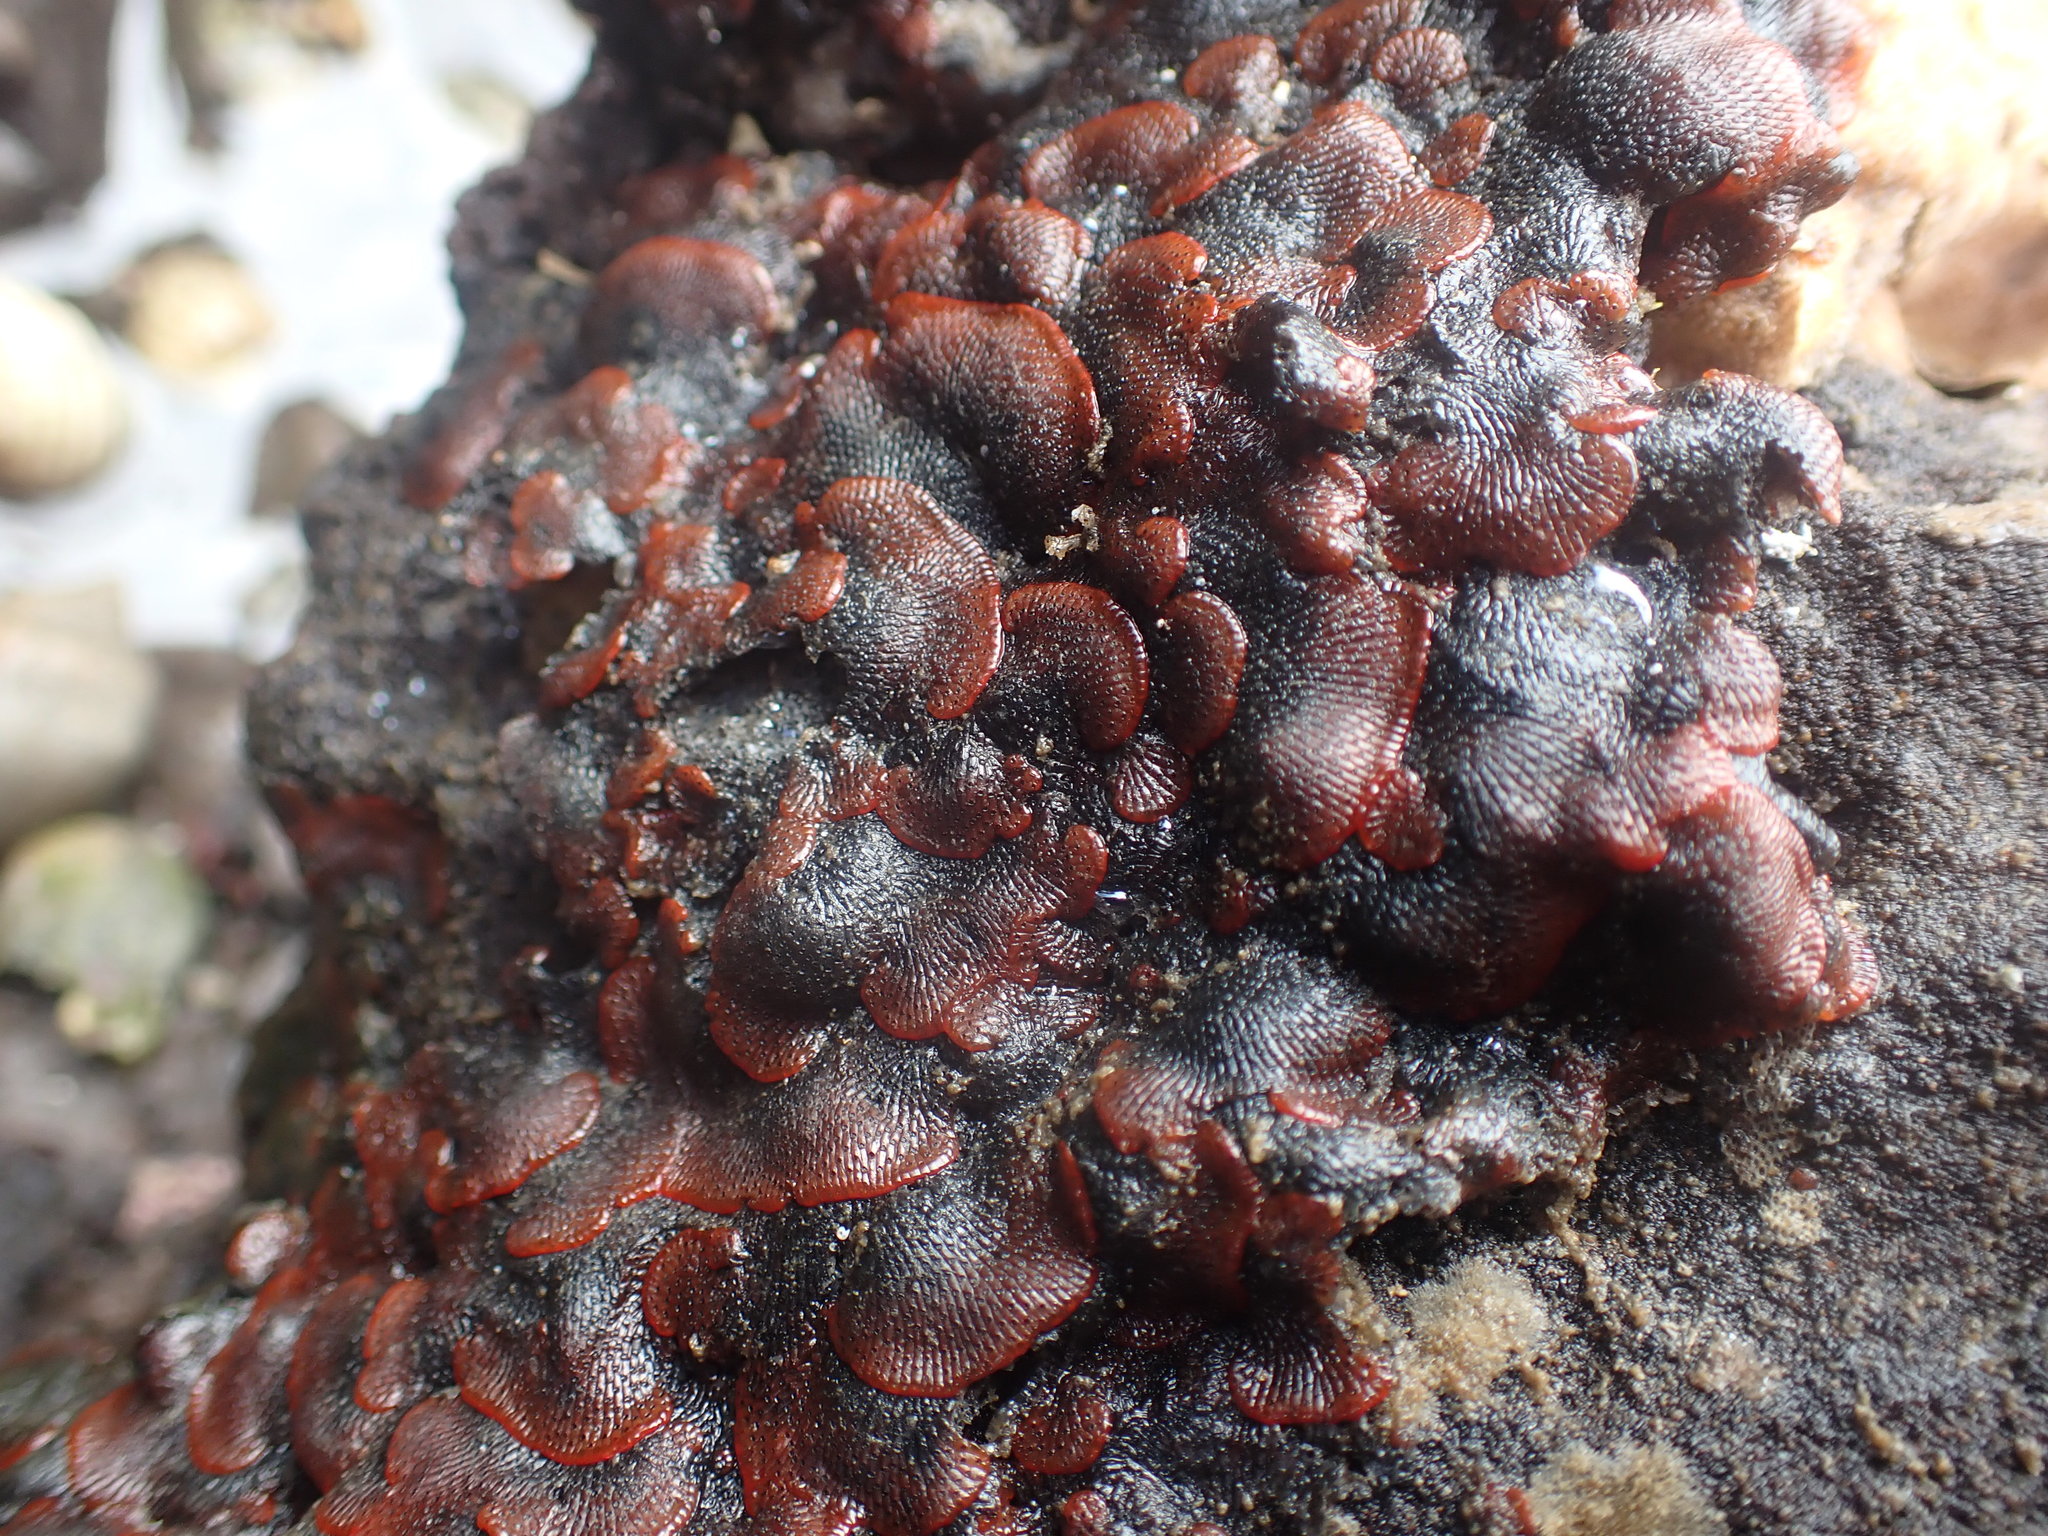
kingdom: Animalia
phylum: Bryozoa
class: Gymnolaemata
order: Cheilostomatida
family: Watersiporidae
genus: Watersipora
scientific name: Watersipora subatra
